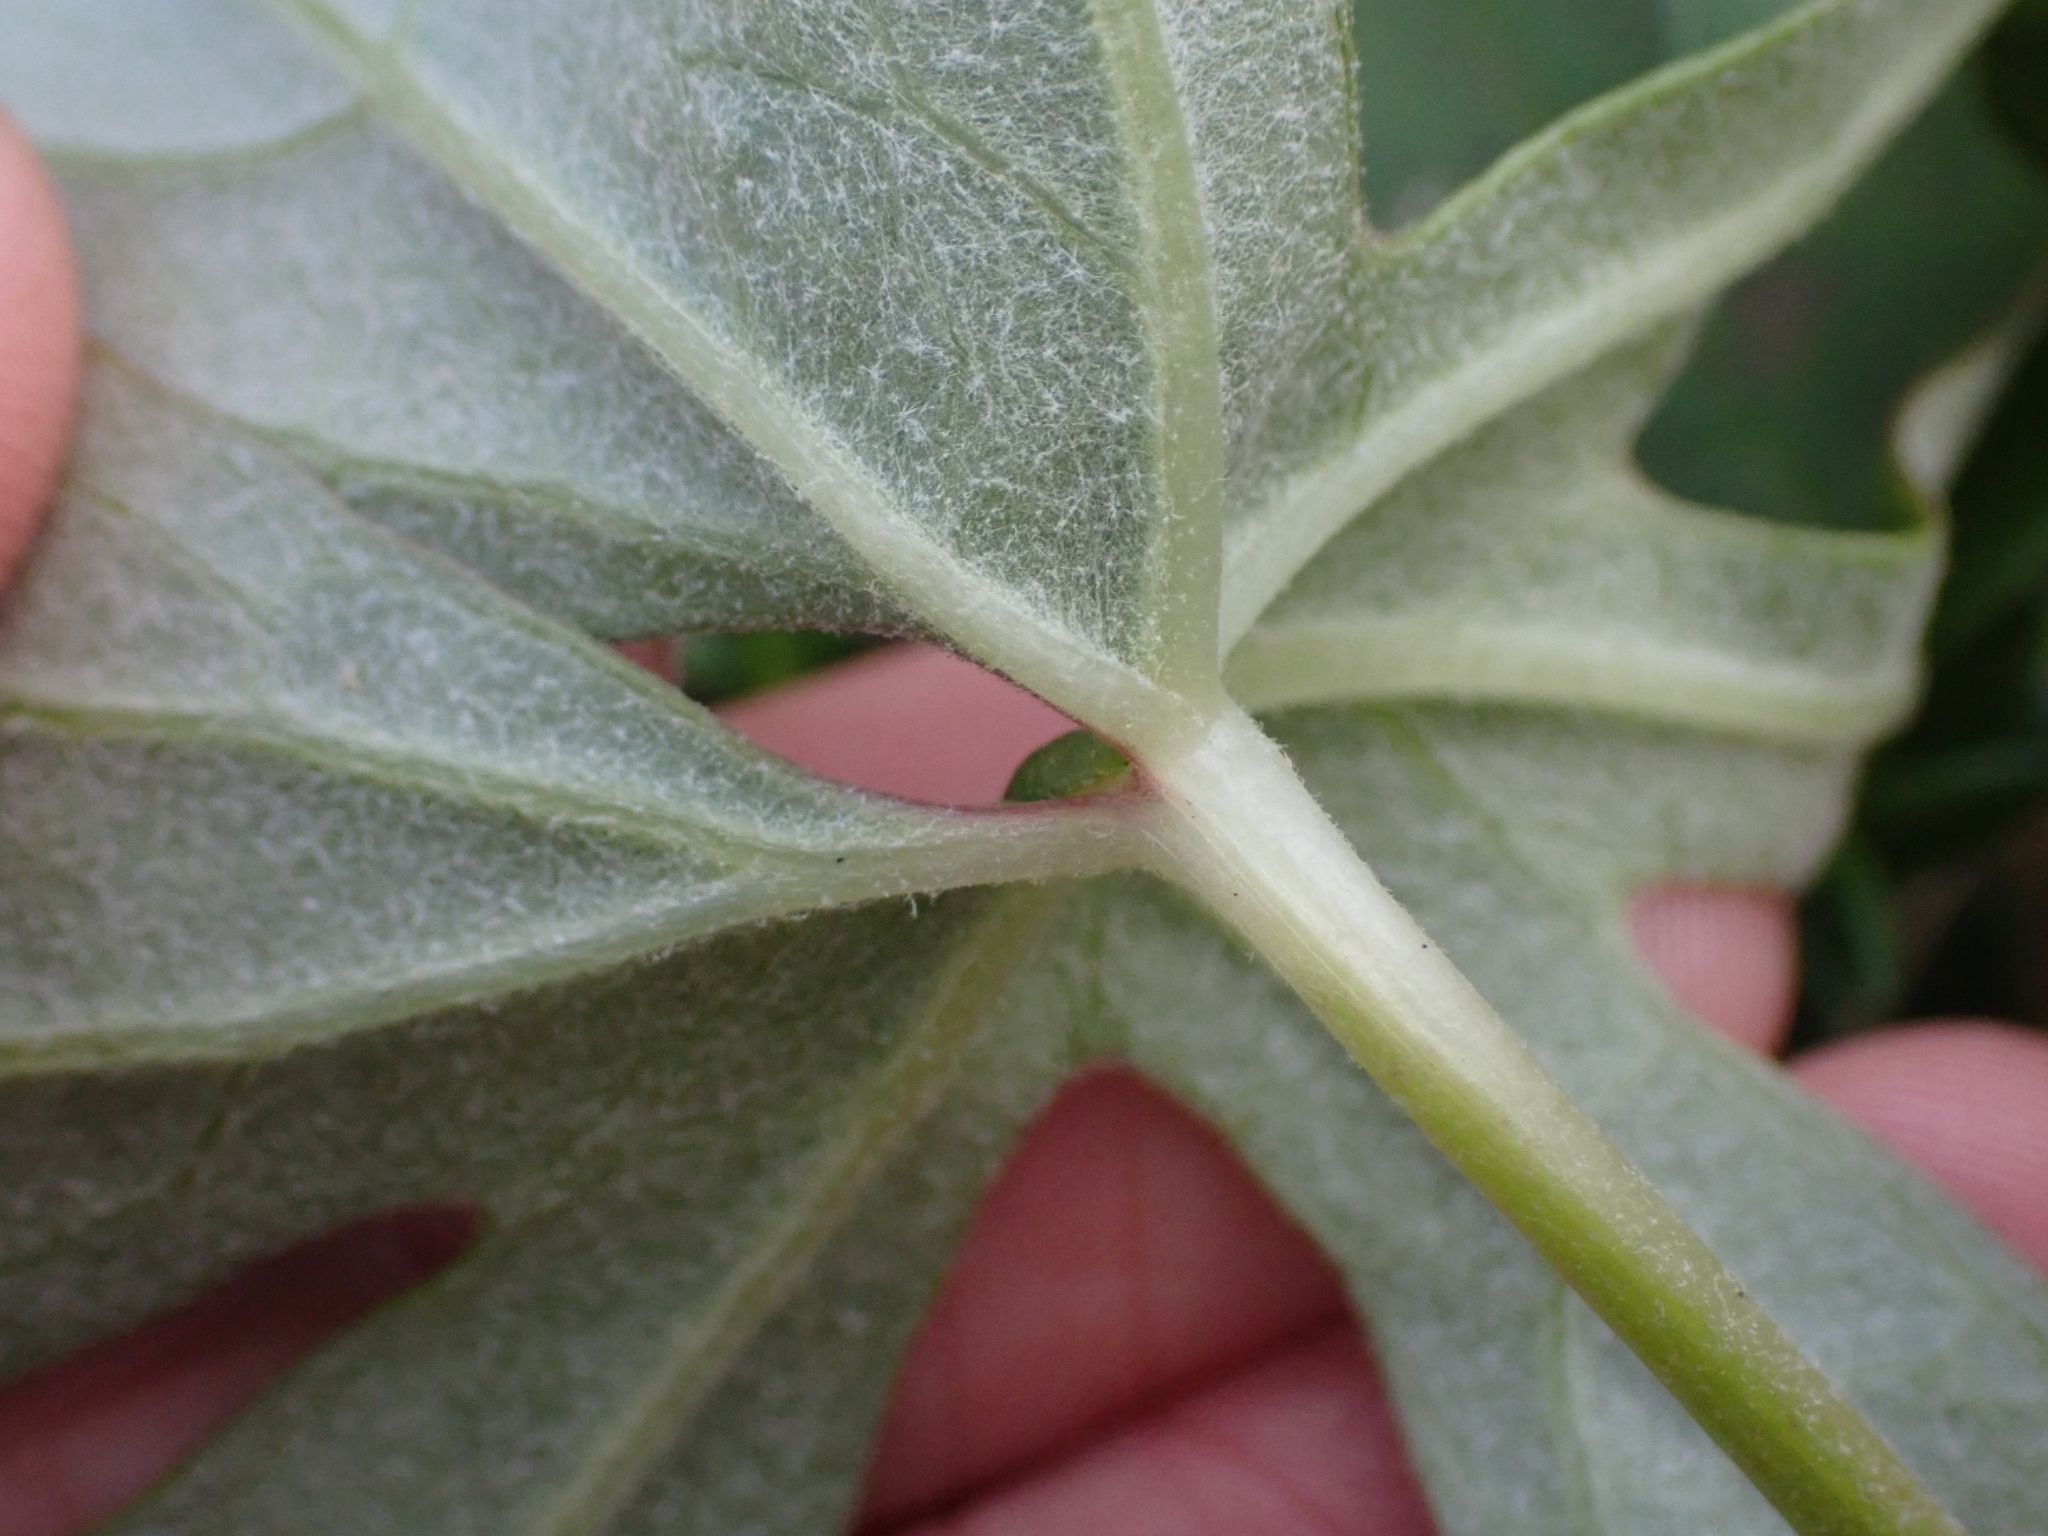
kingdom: Plantae
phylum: Tracheophyta
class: Magnoliopsida
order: Asterales
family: Asteraceae
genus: Petasites
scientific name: Petasites frigidus
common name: Arctic butterbur
